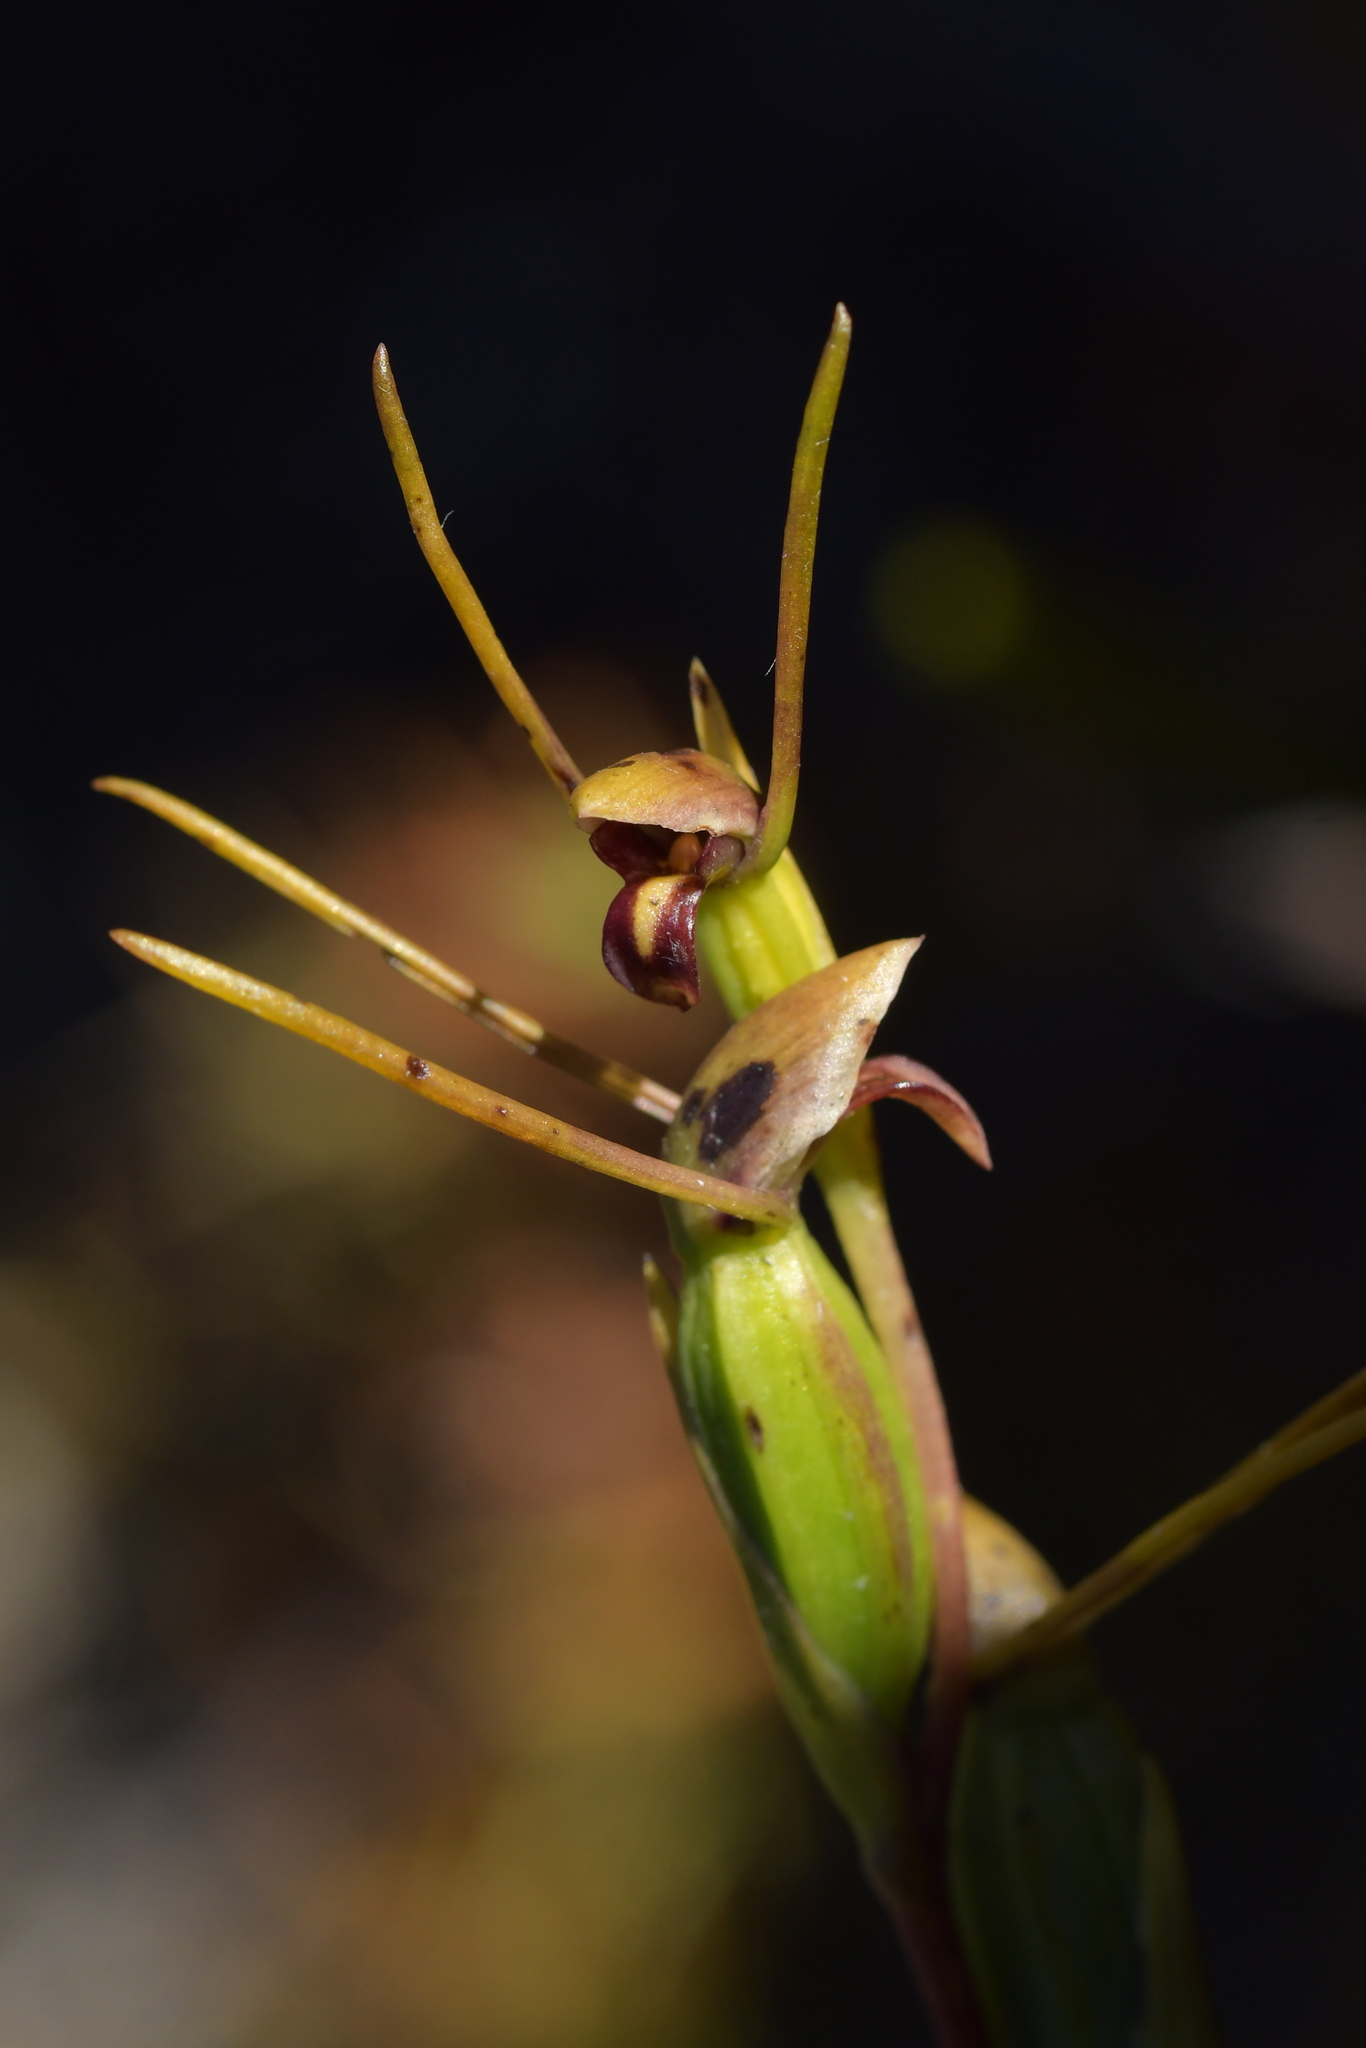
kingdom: Plantae
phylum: Tracheophyta
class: Liliopsida
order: Asparagales
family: Orchidaceae
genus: Orthoceras
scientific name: Orthoceras novae-zeelandiae
